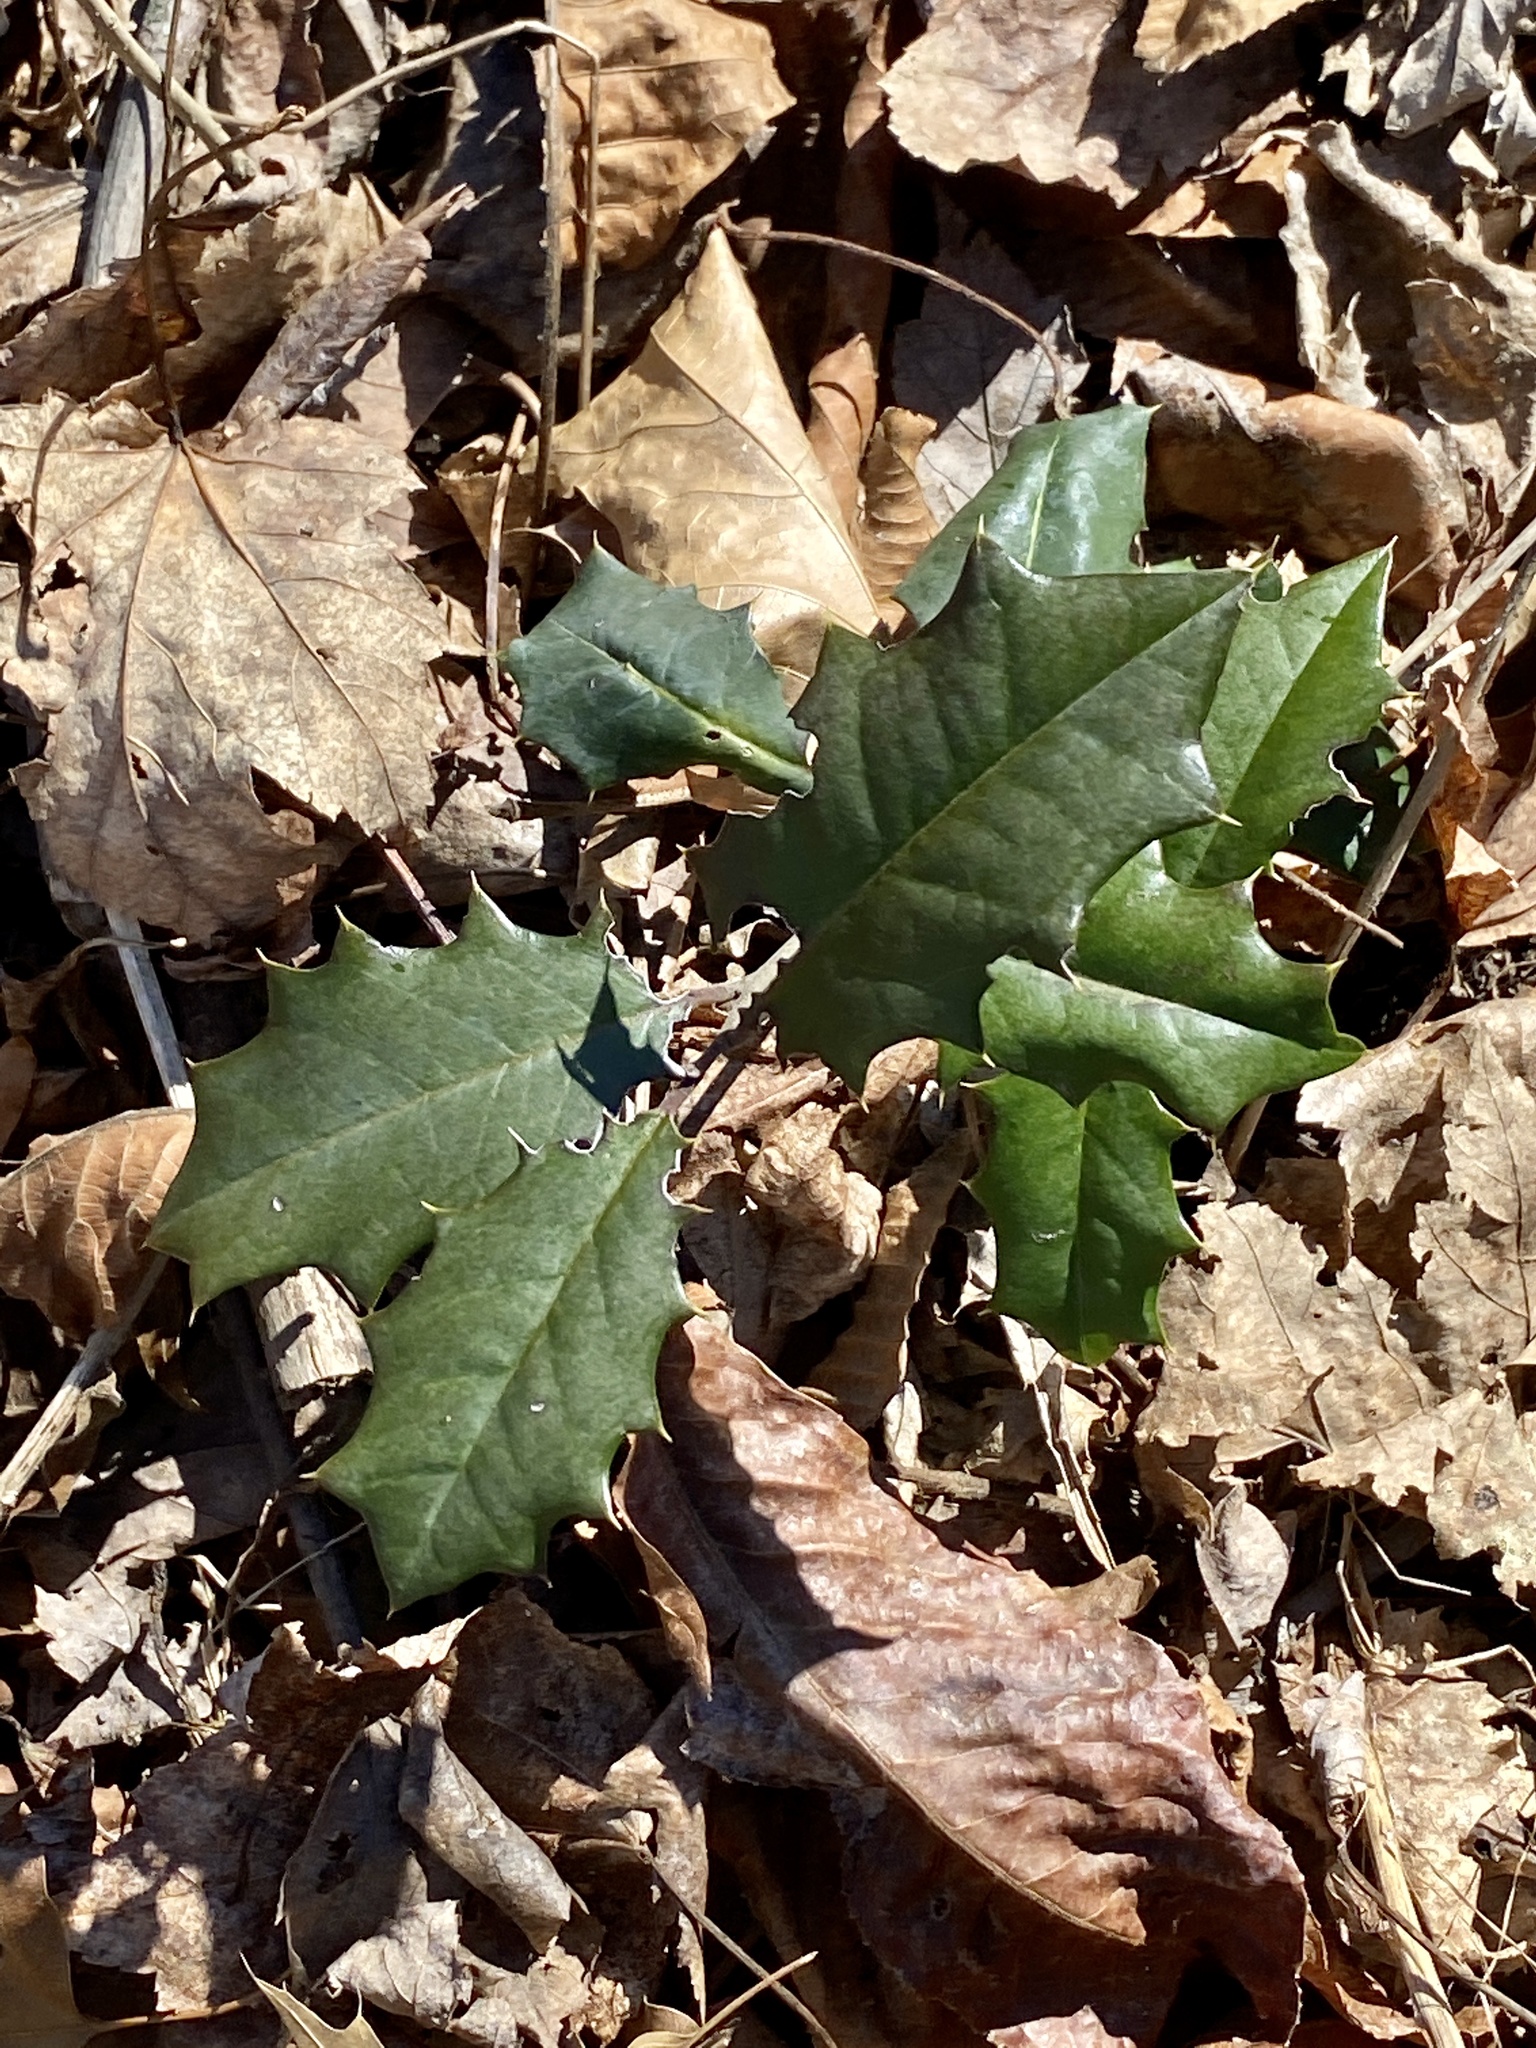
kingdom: Plantae
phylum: Tracheophyta
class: Magnoliopsida
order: Aquifoliales
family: Aquifoliaceae
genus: Ilex
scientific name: Ilex opaca
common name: American holly
